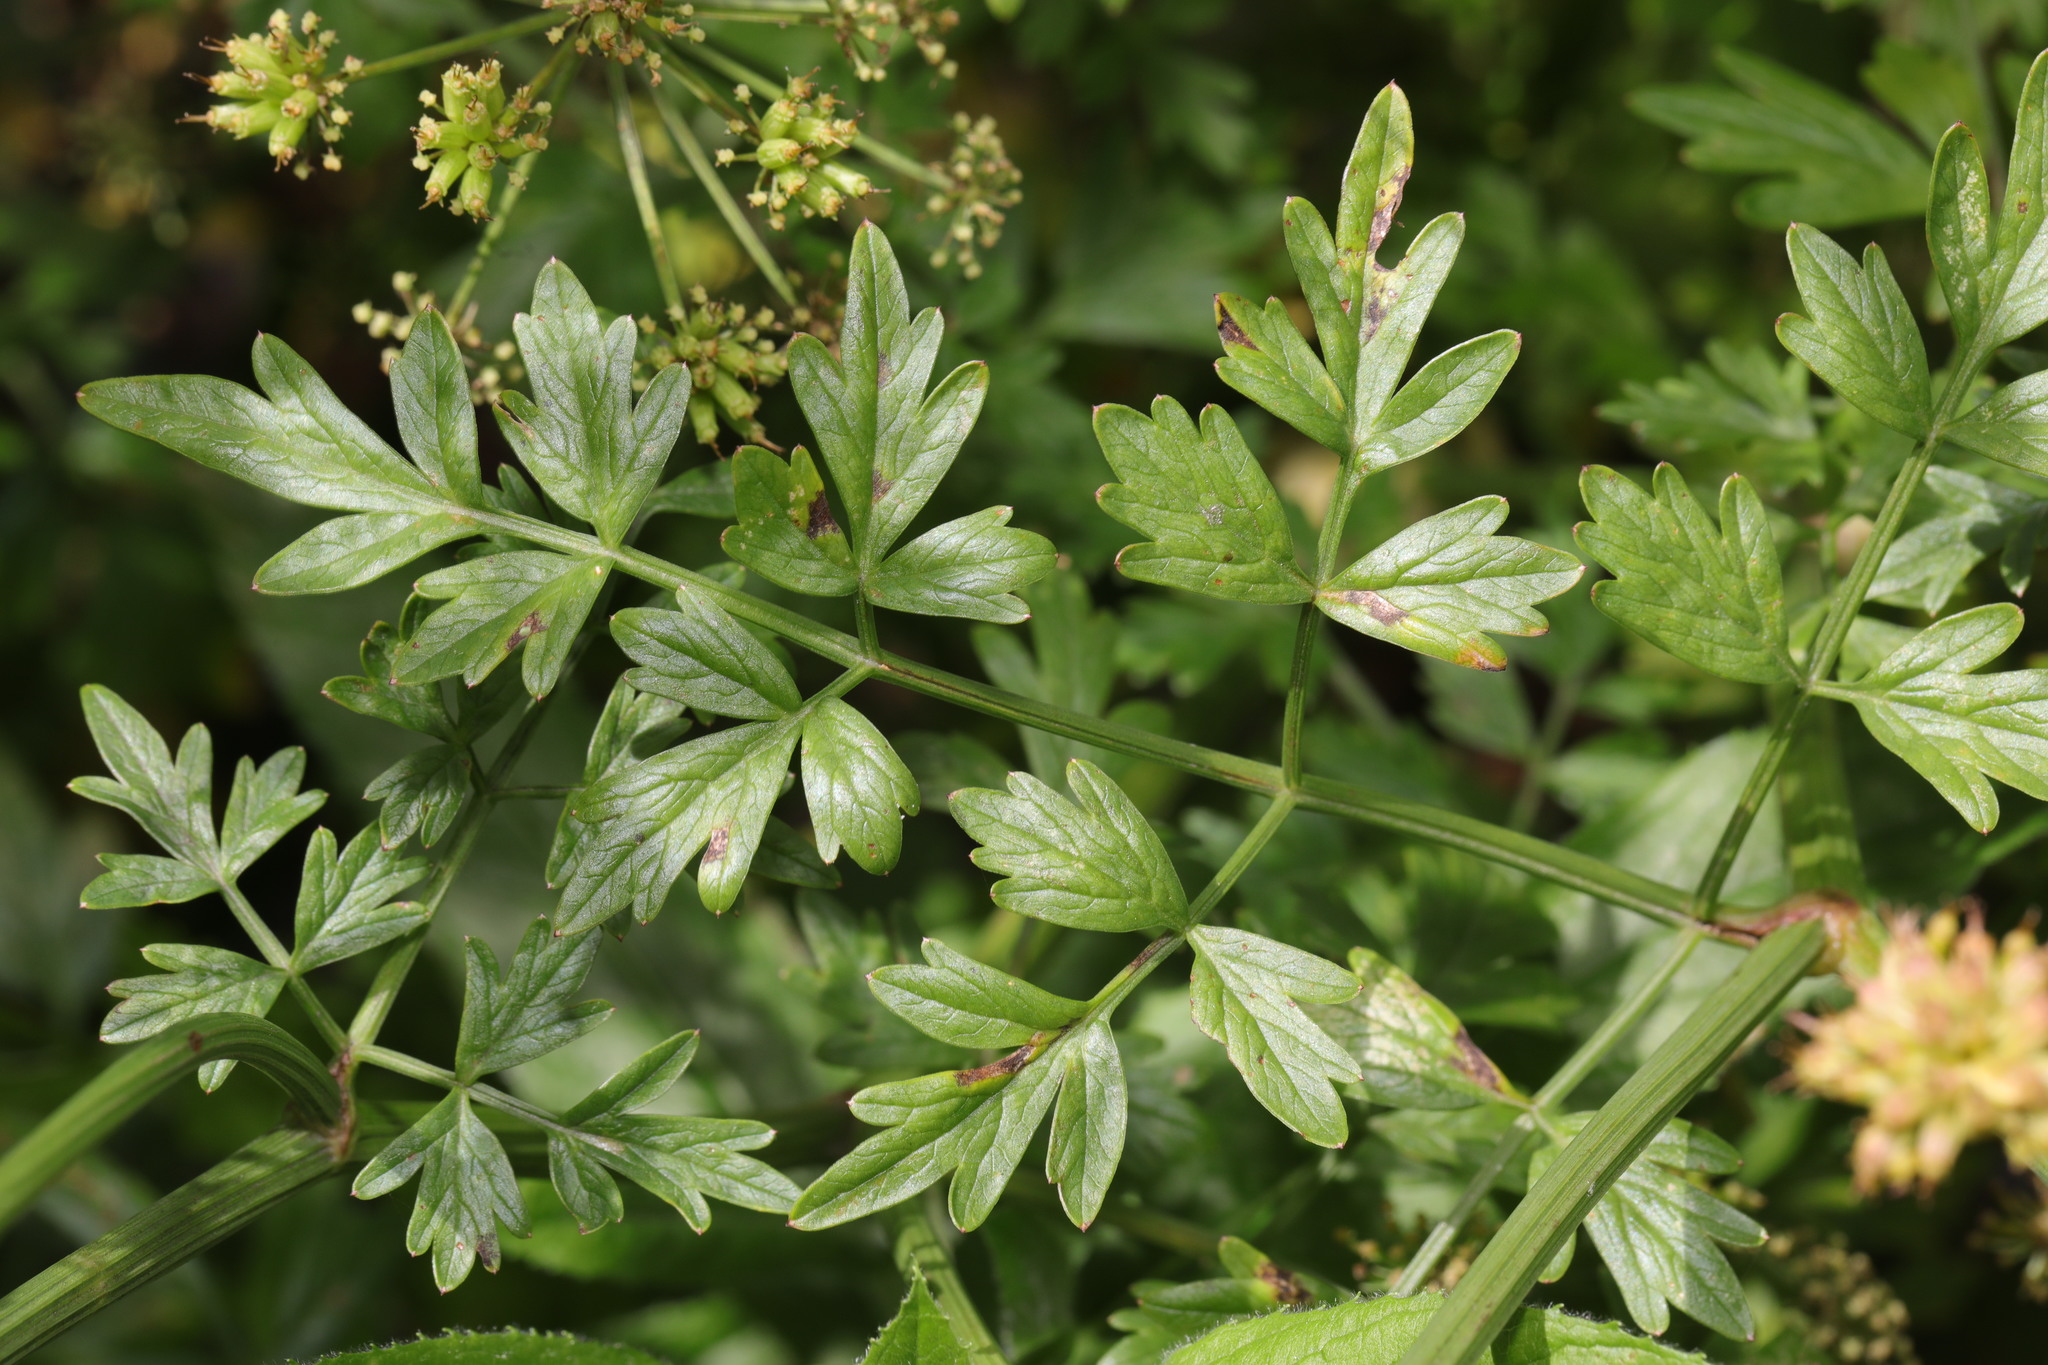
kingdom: Plantae
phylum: Tracheophyta
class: Magnoliopsida
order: Apiales
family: Apiaceae
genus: Oenanthe
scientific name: Oenanthe crocata
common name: Hemlock water-dropwort
